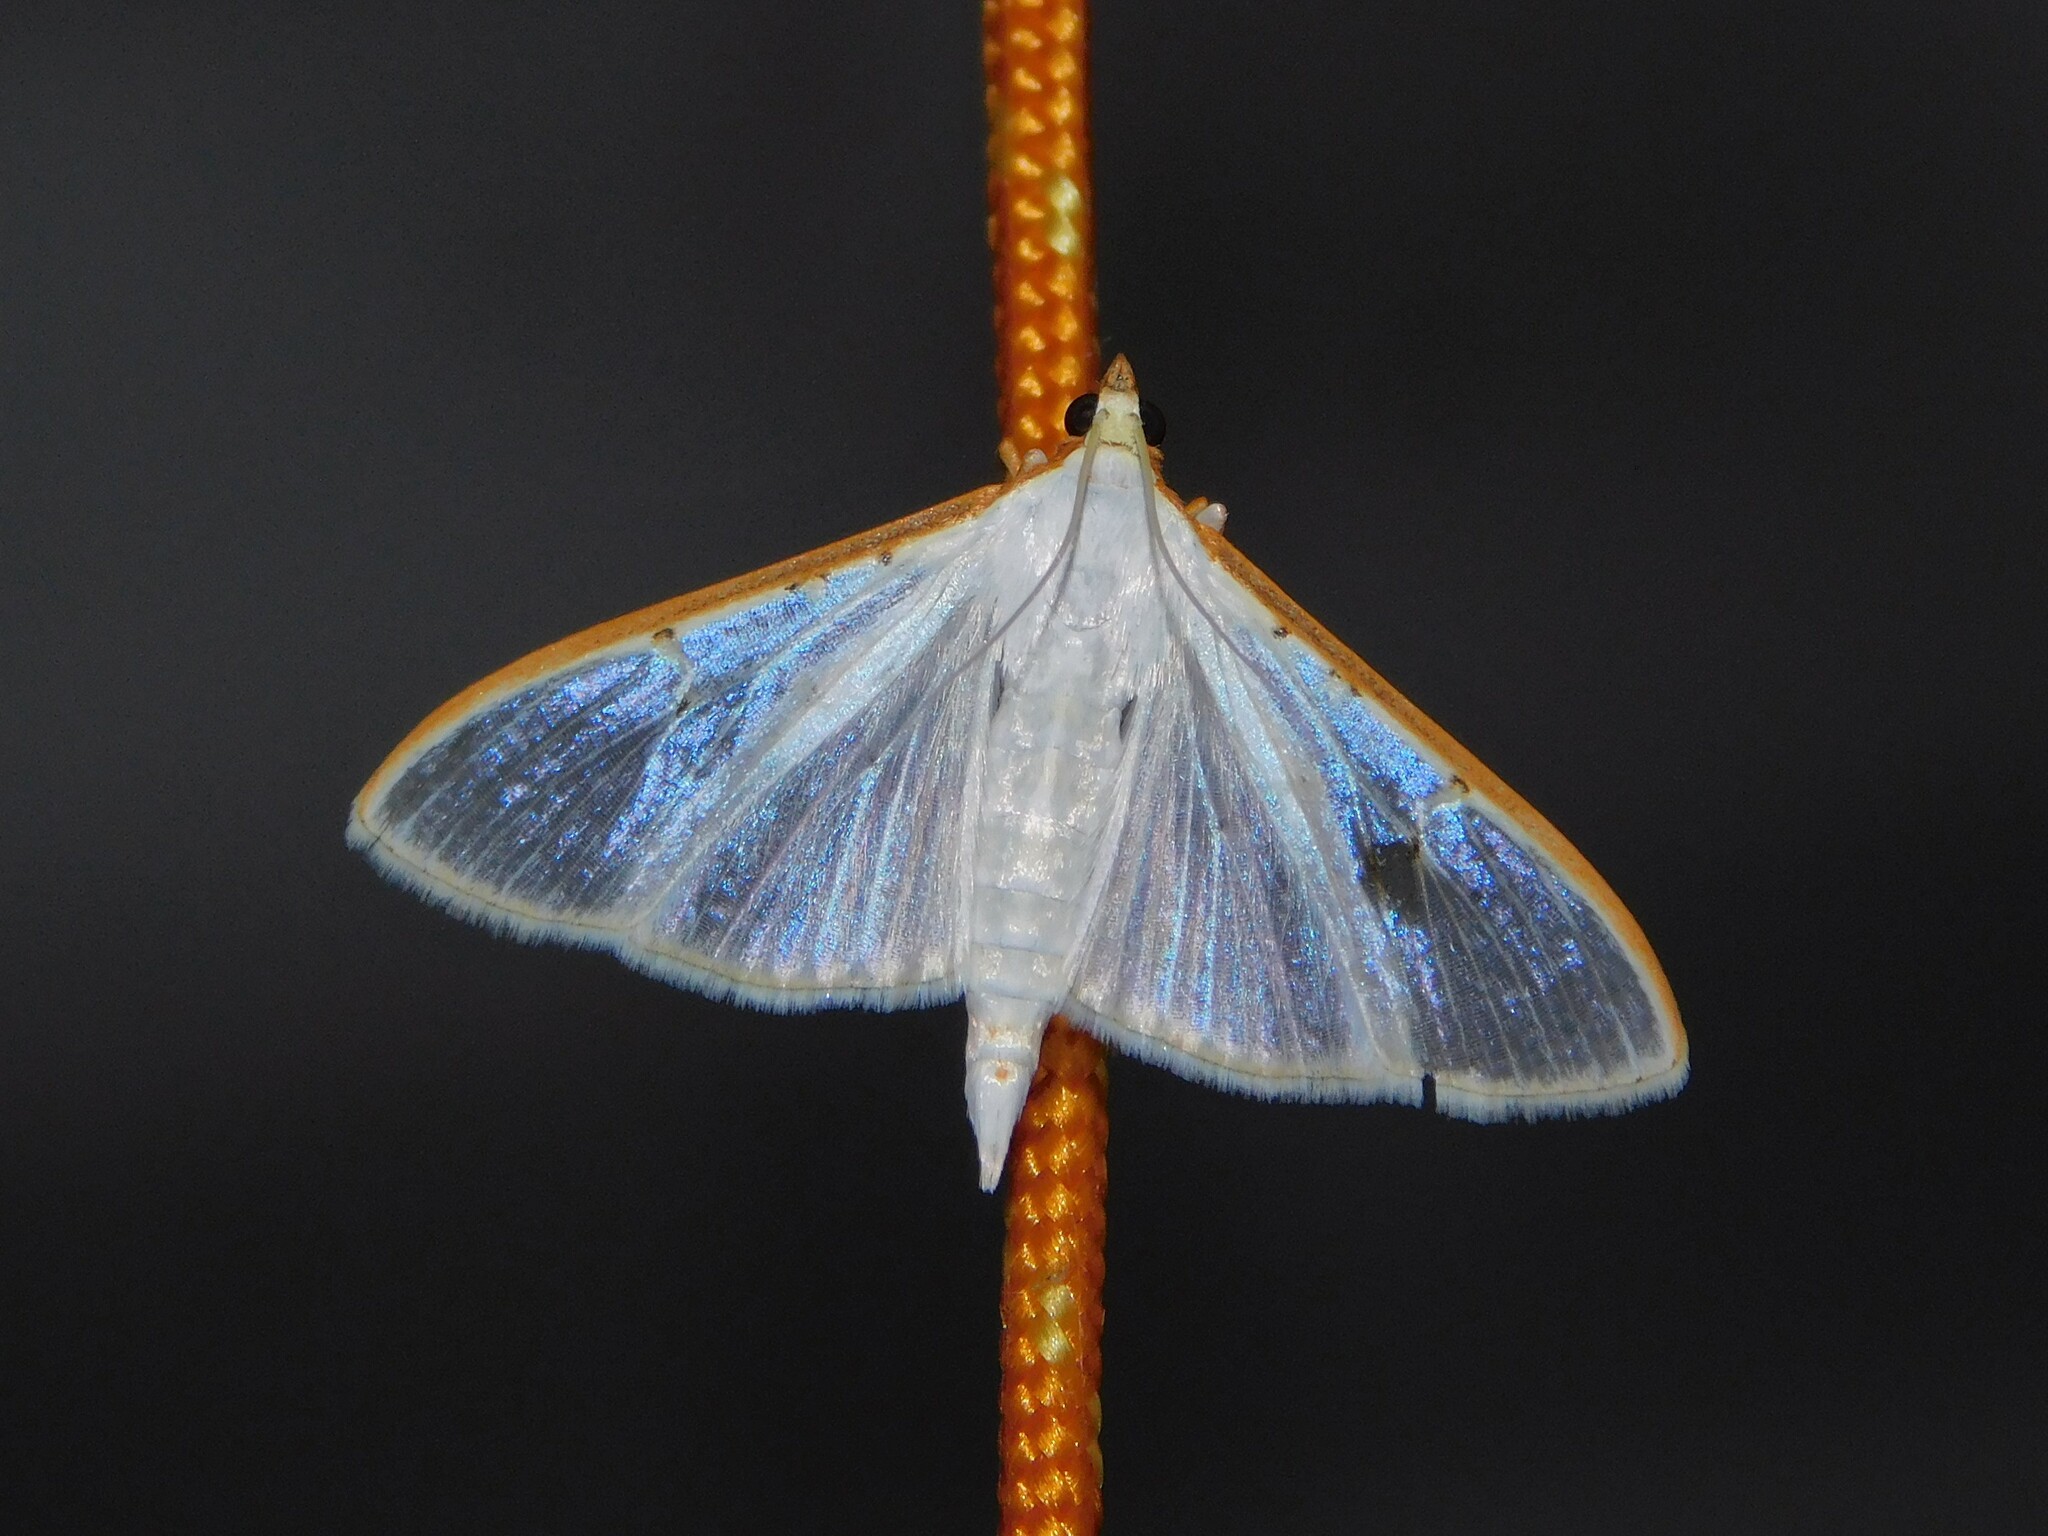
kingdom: Animalia
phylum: Arthropoda
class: Insecta
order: Lepidoptera
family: Crambidae
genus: Palpita
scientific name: Palpita vitrealis
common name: Olive-tree pearl
